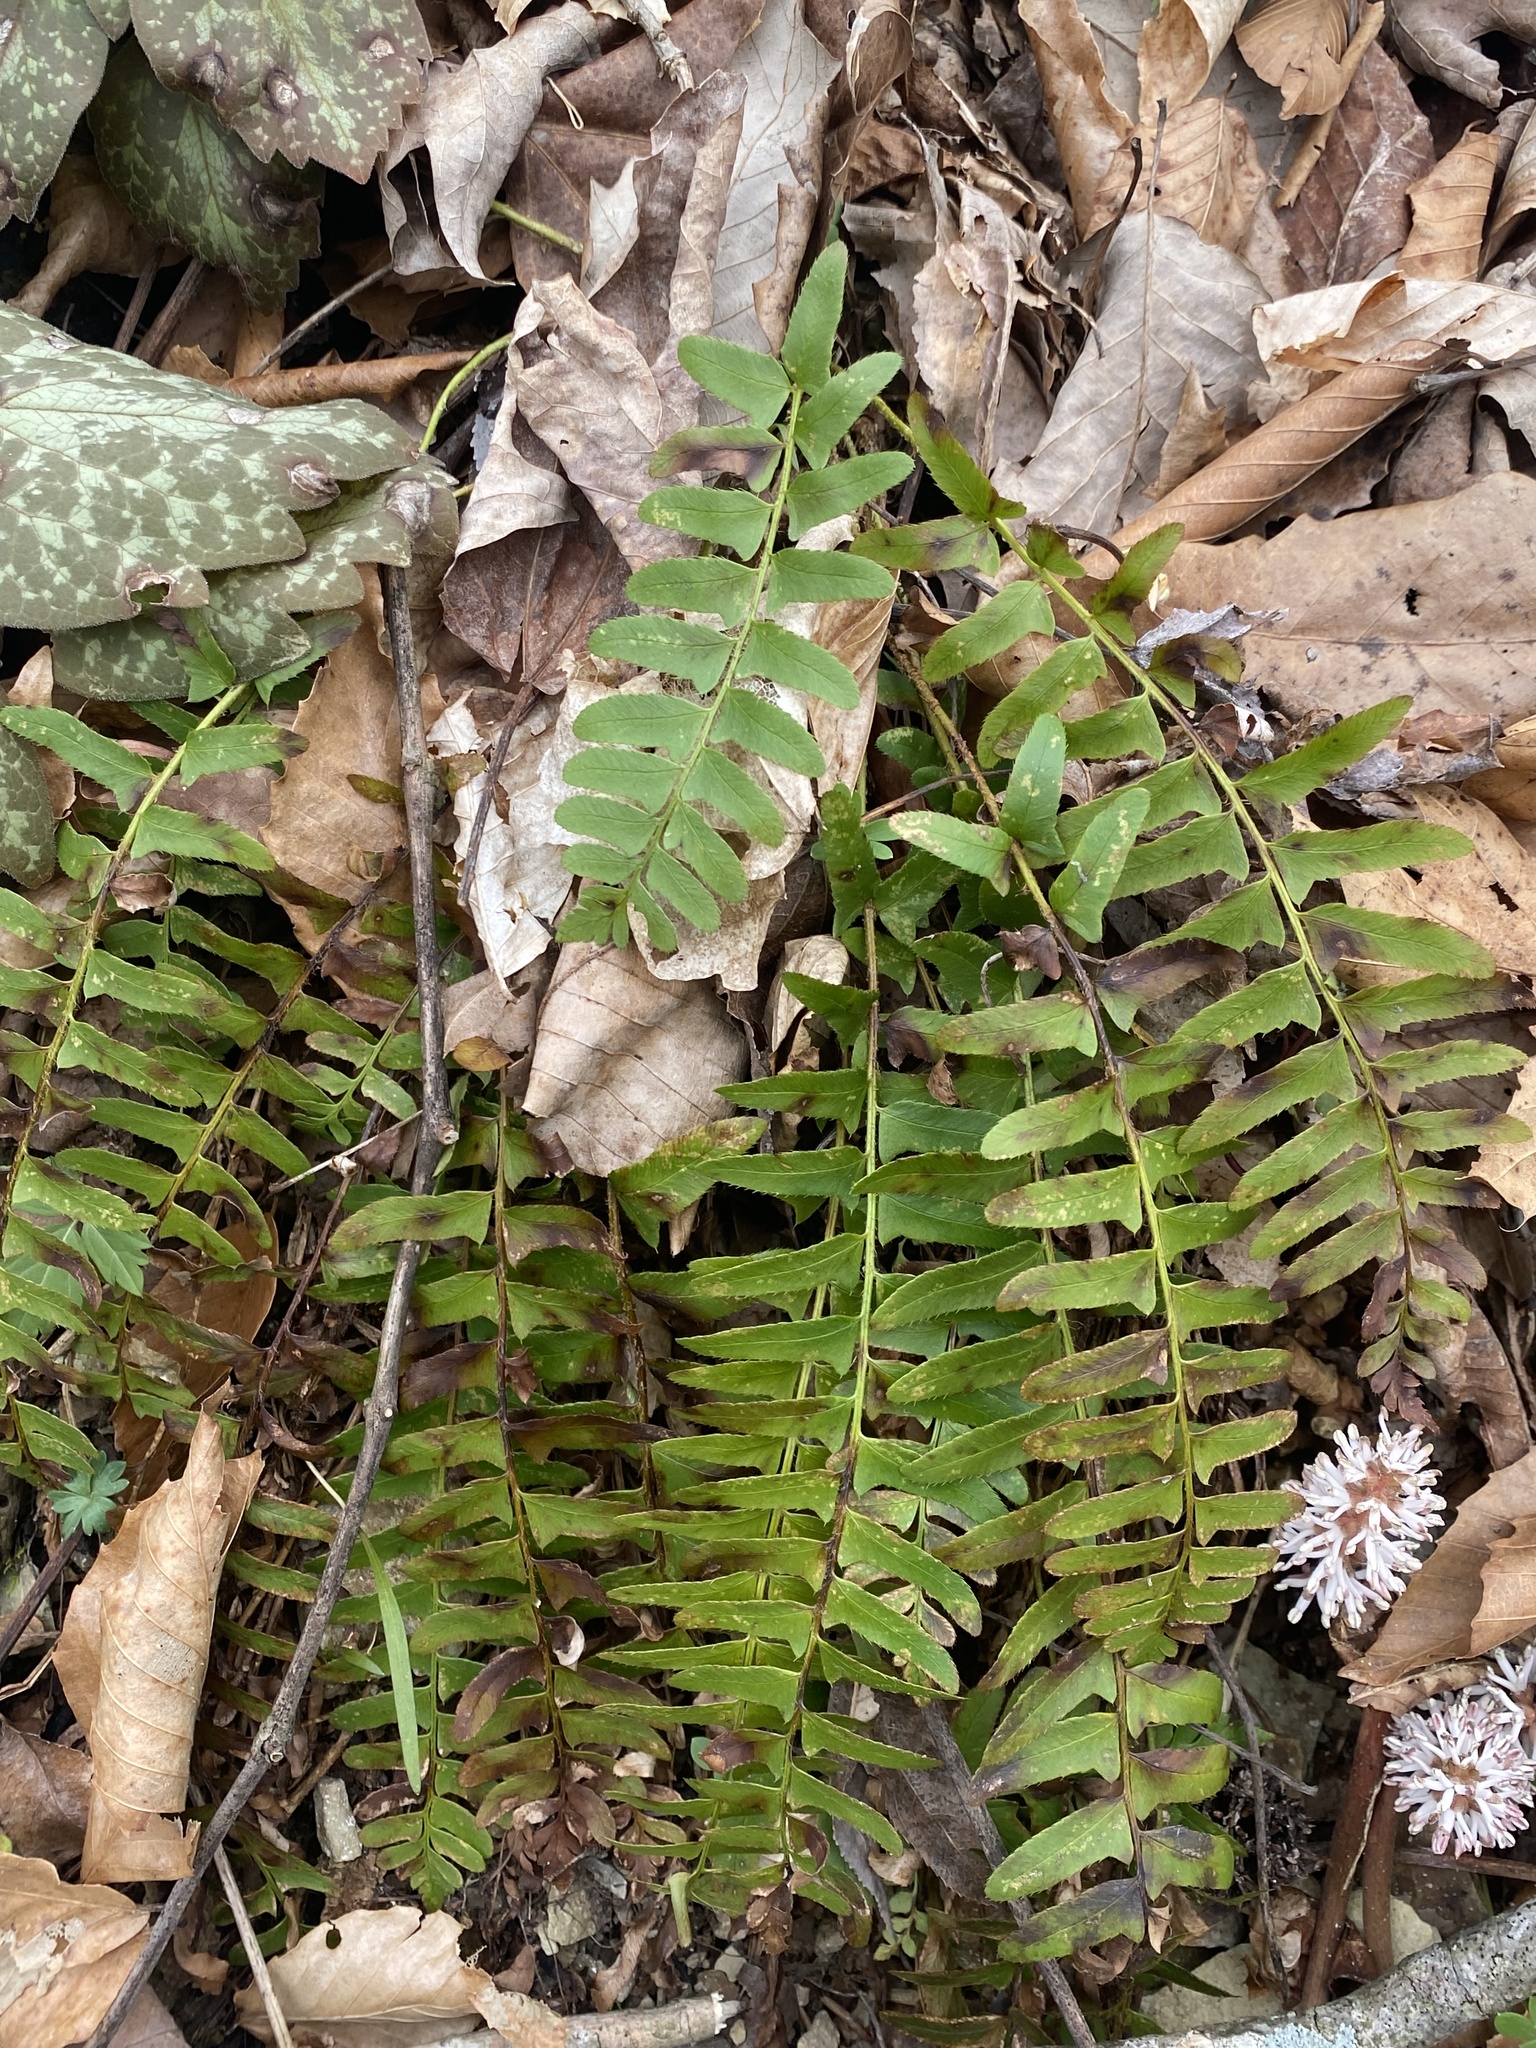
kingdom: Plantae
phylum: Tracheophyta
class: Polypodiopsida
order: Polypodiales
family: Dryopteridaceae
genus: Polystichum
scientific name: Polystichum acrostichoides
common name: Christmas fern
